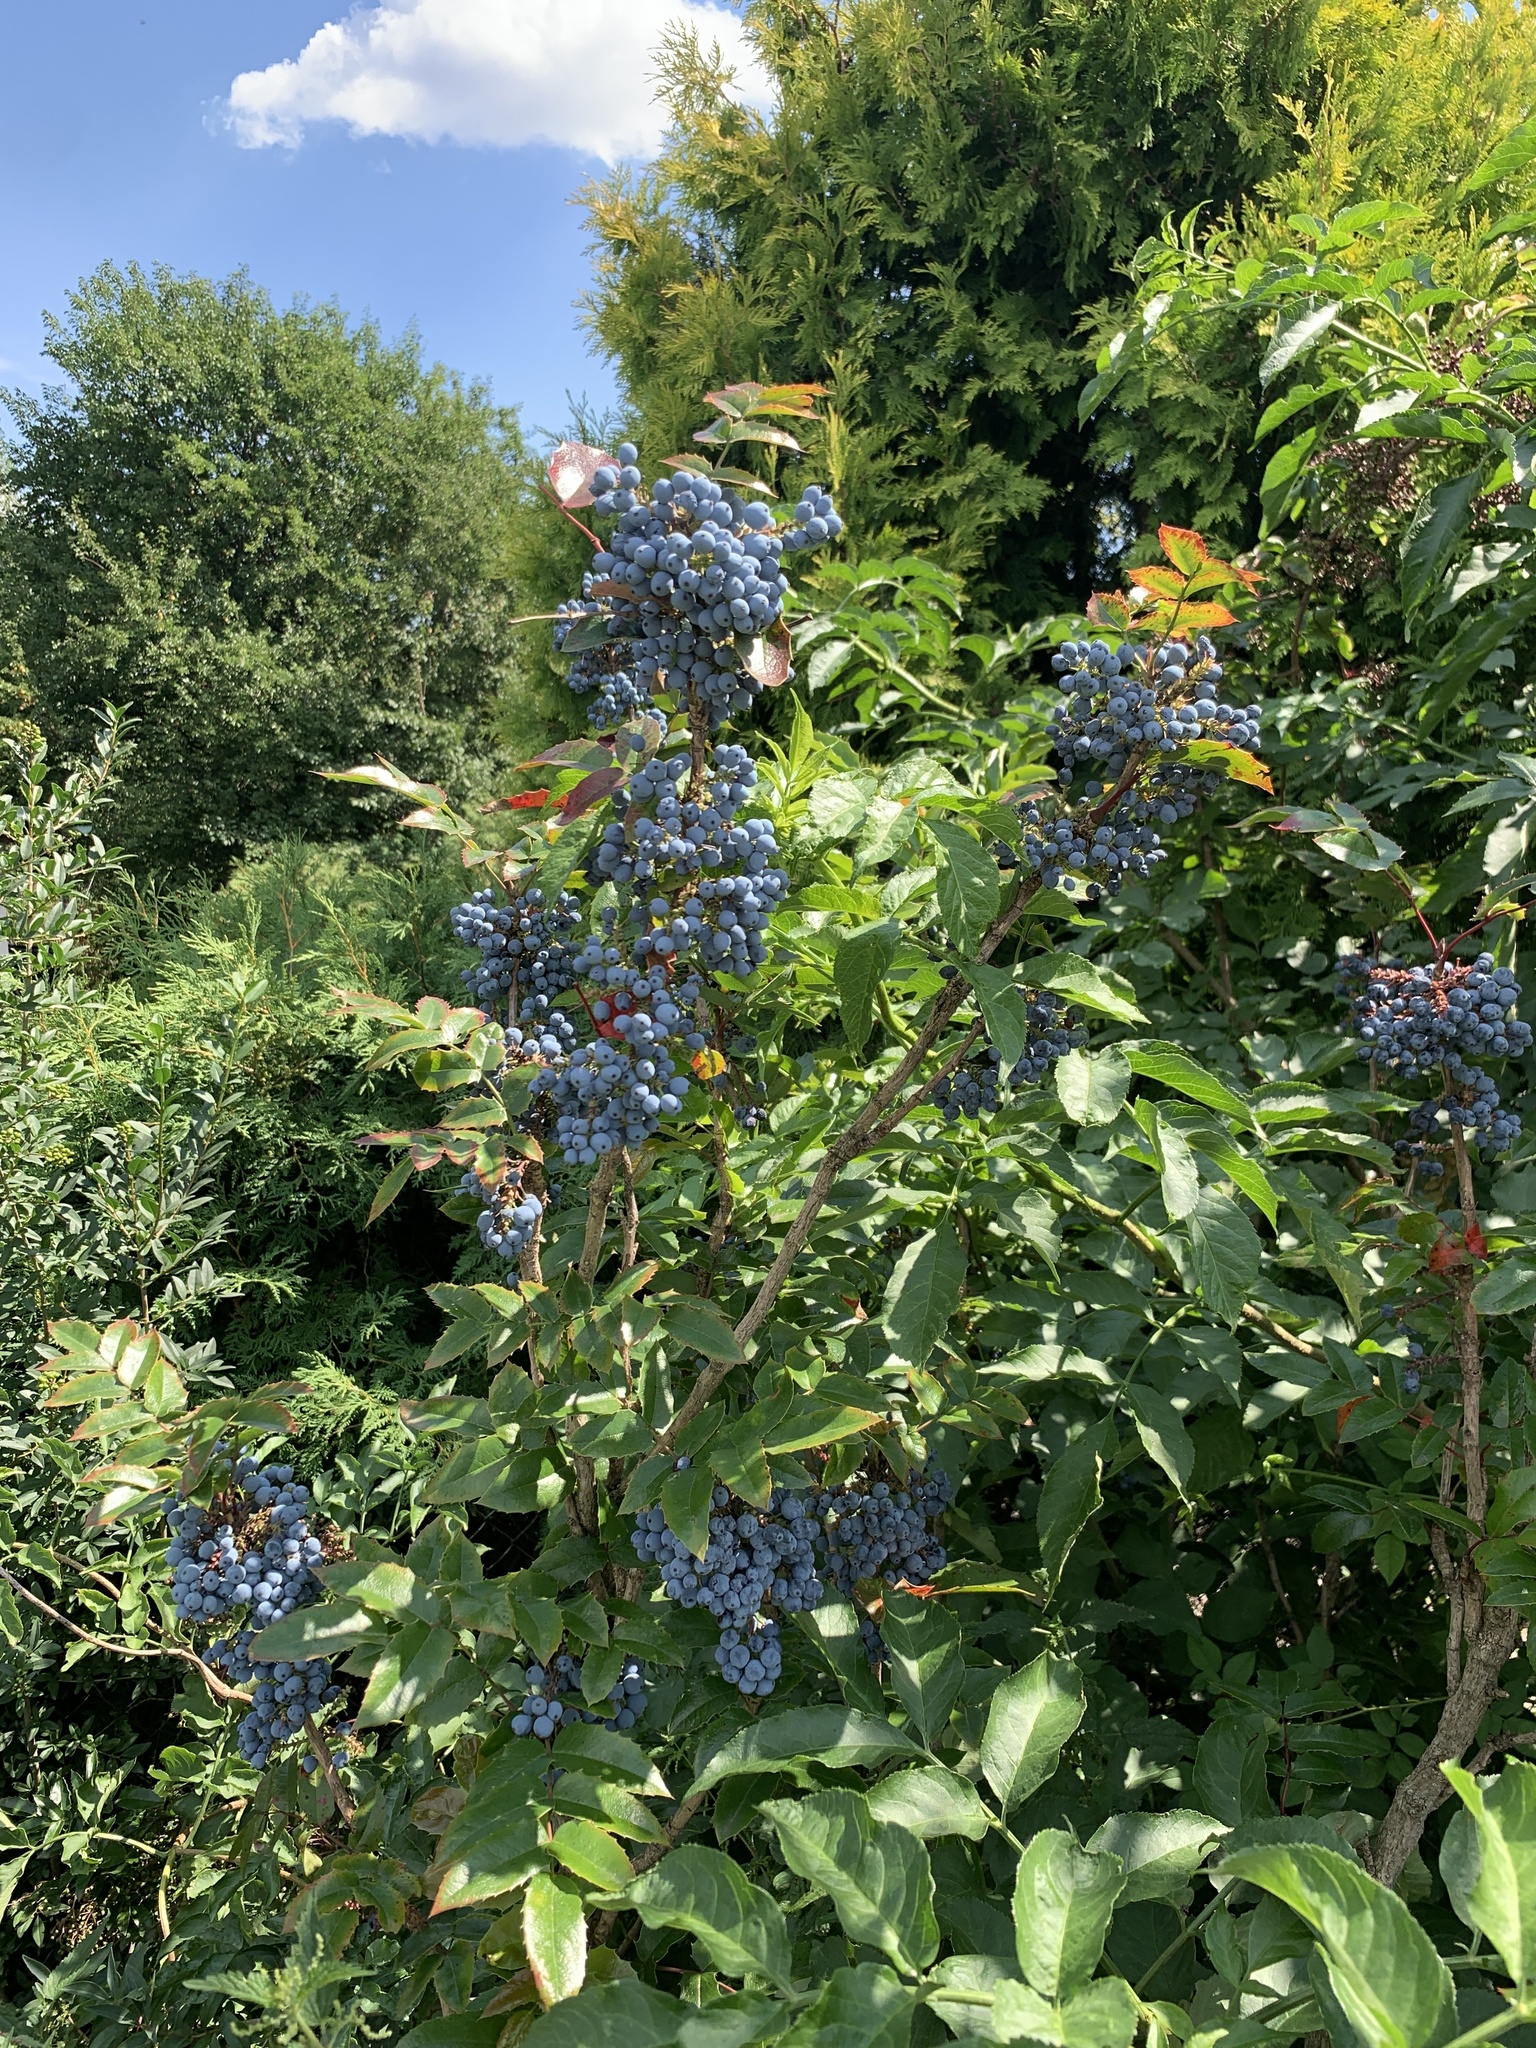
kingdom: Plantae
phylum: Tracheophyta
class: Magnoliopsida
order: Ranunculales
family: Berberidaceae
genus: Mahonia
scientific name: Mahonia aquifolium
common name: Oregon-grape
